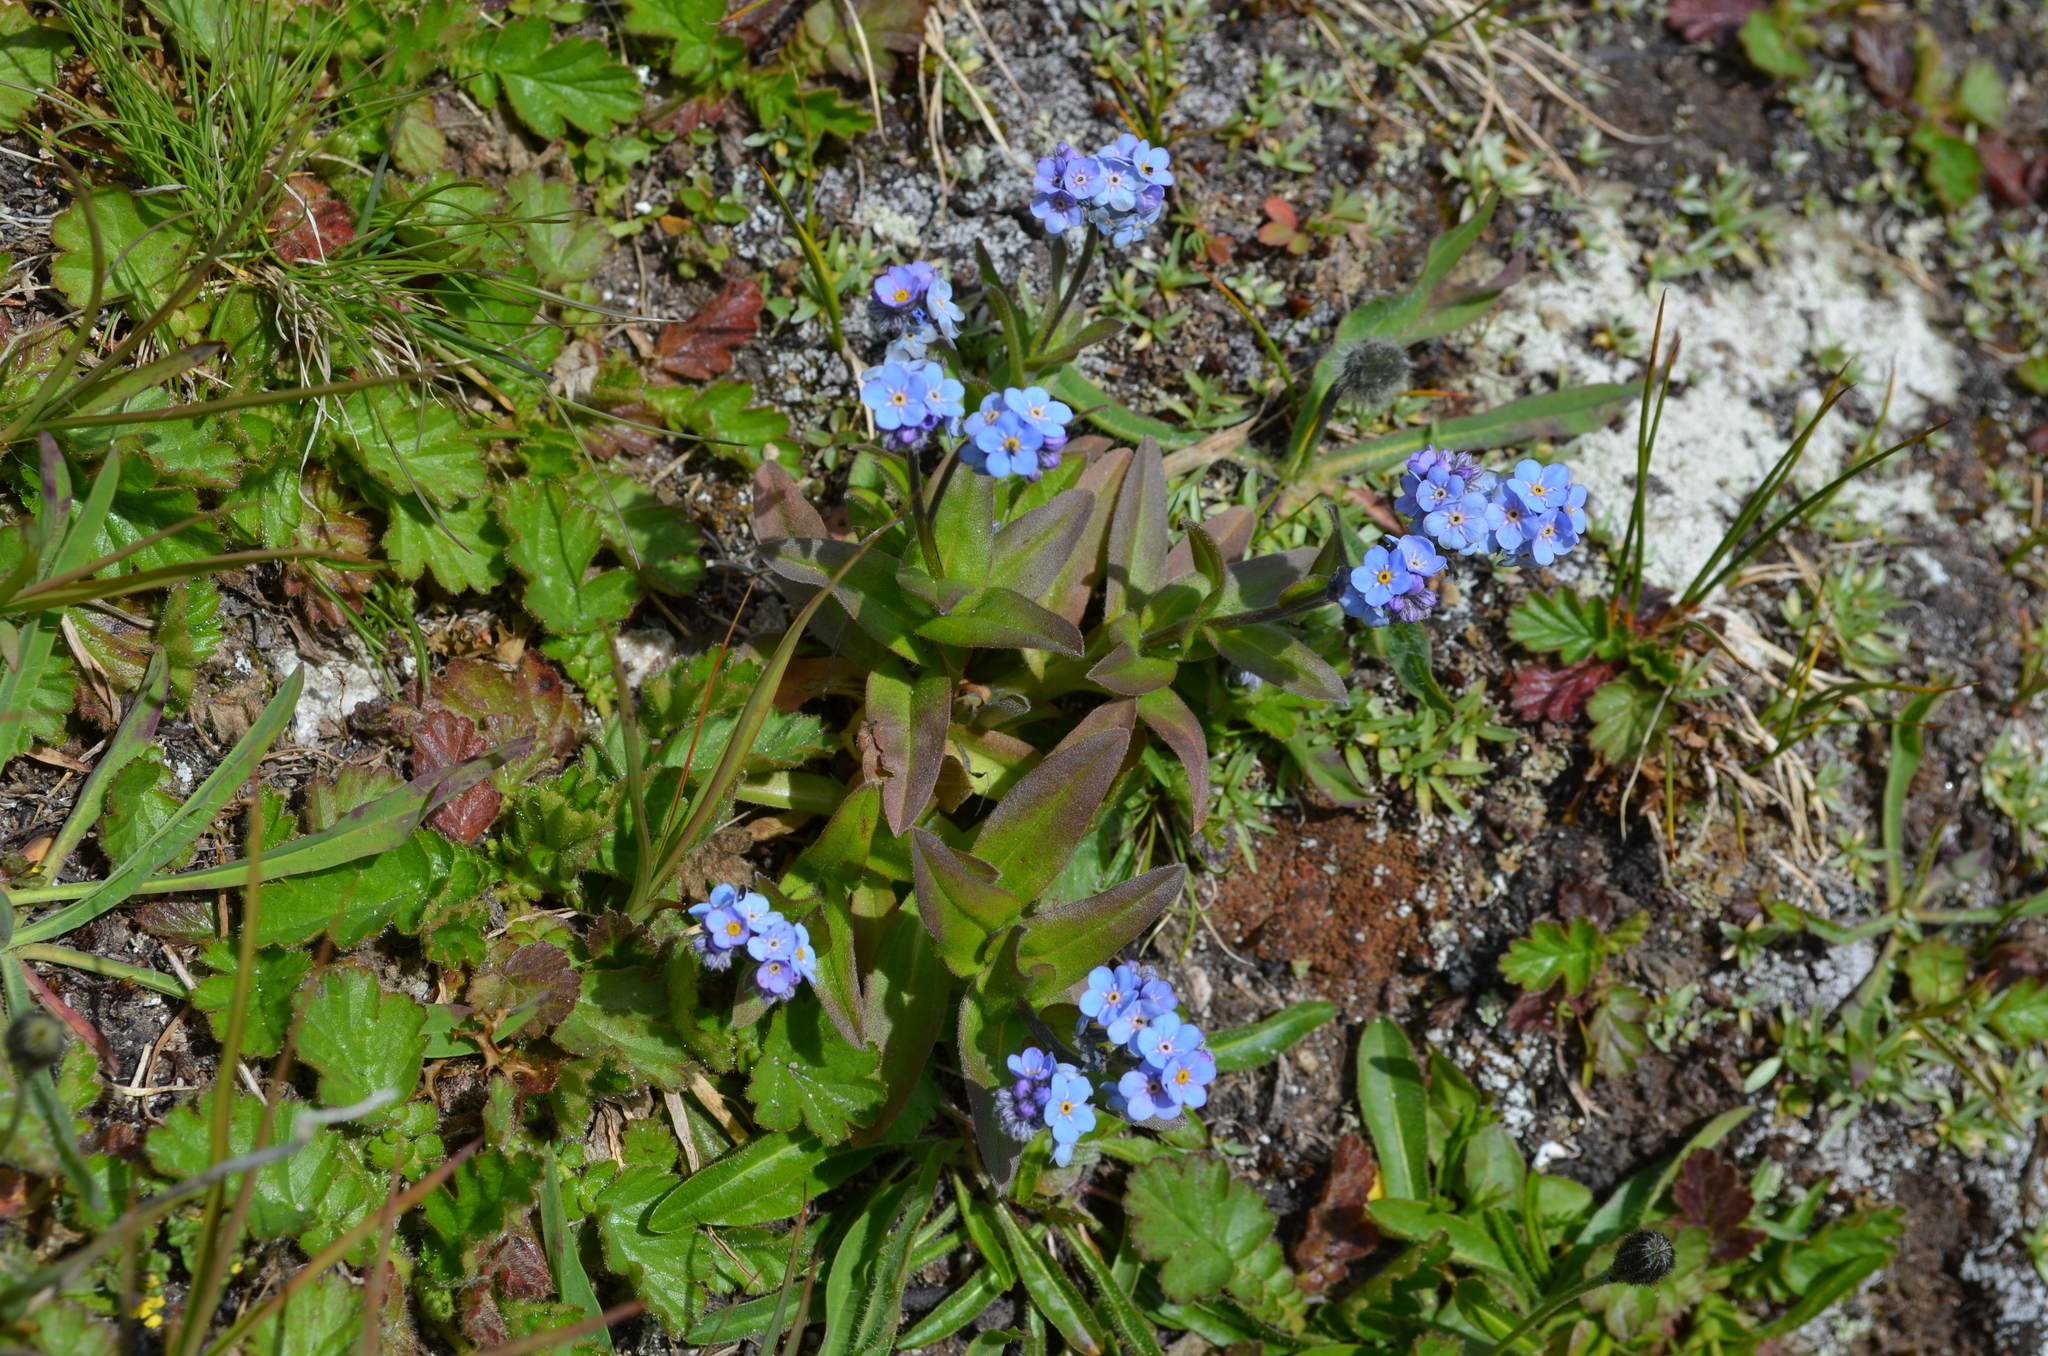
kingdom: Plantae
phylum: Tracheophyta
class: Magnoliopsida
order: Boraginales
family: Boraginaceae
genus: Myosotis
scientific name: Myosotis alpestris
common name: Alpine forget-me-not
